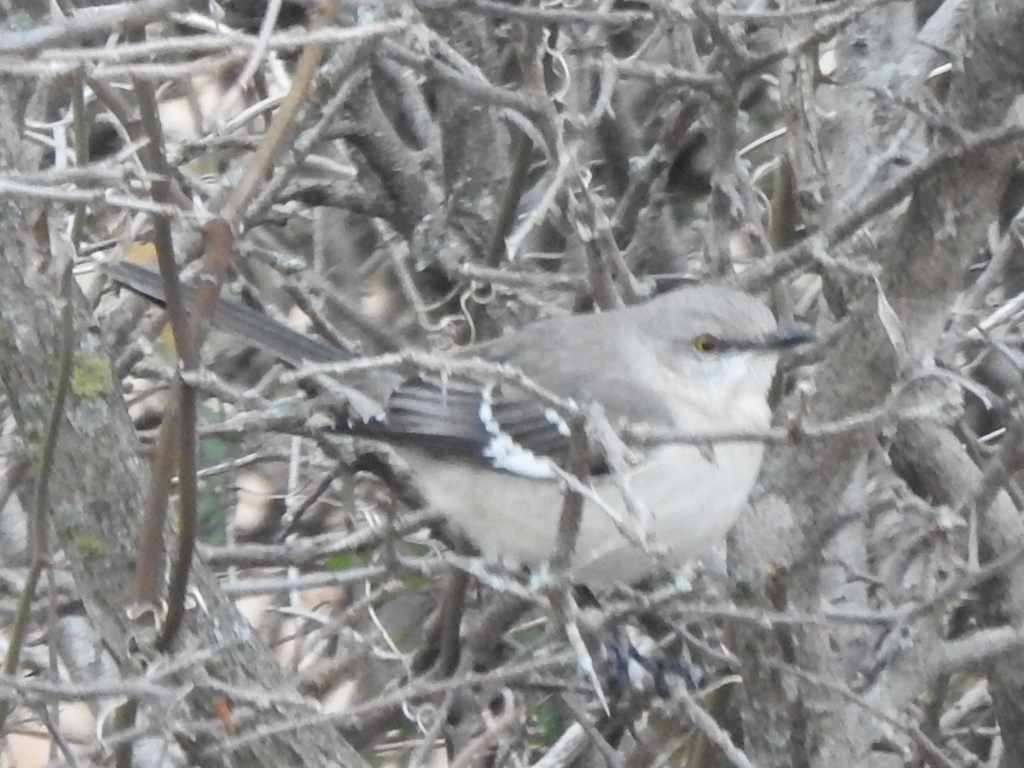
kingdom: Animalia
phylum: Chordata
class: Aves
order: Passeriformes
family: Mimidae
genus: Mimus
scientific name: Mimus polyglottos
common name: Northern mockingbird
